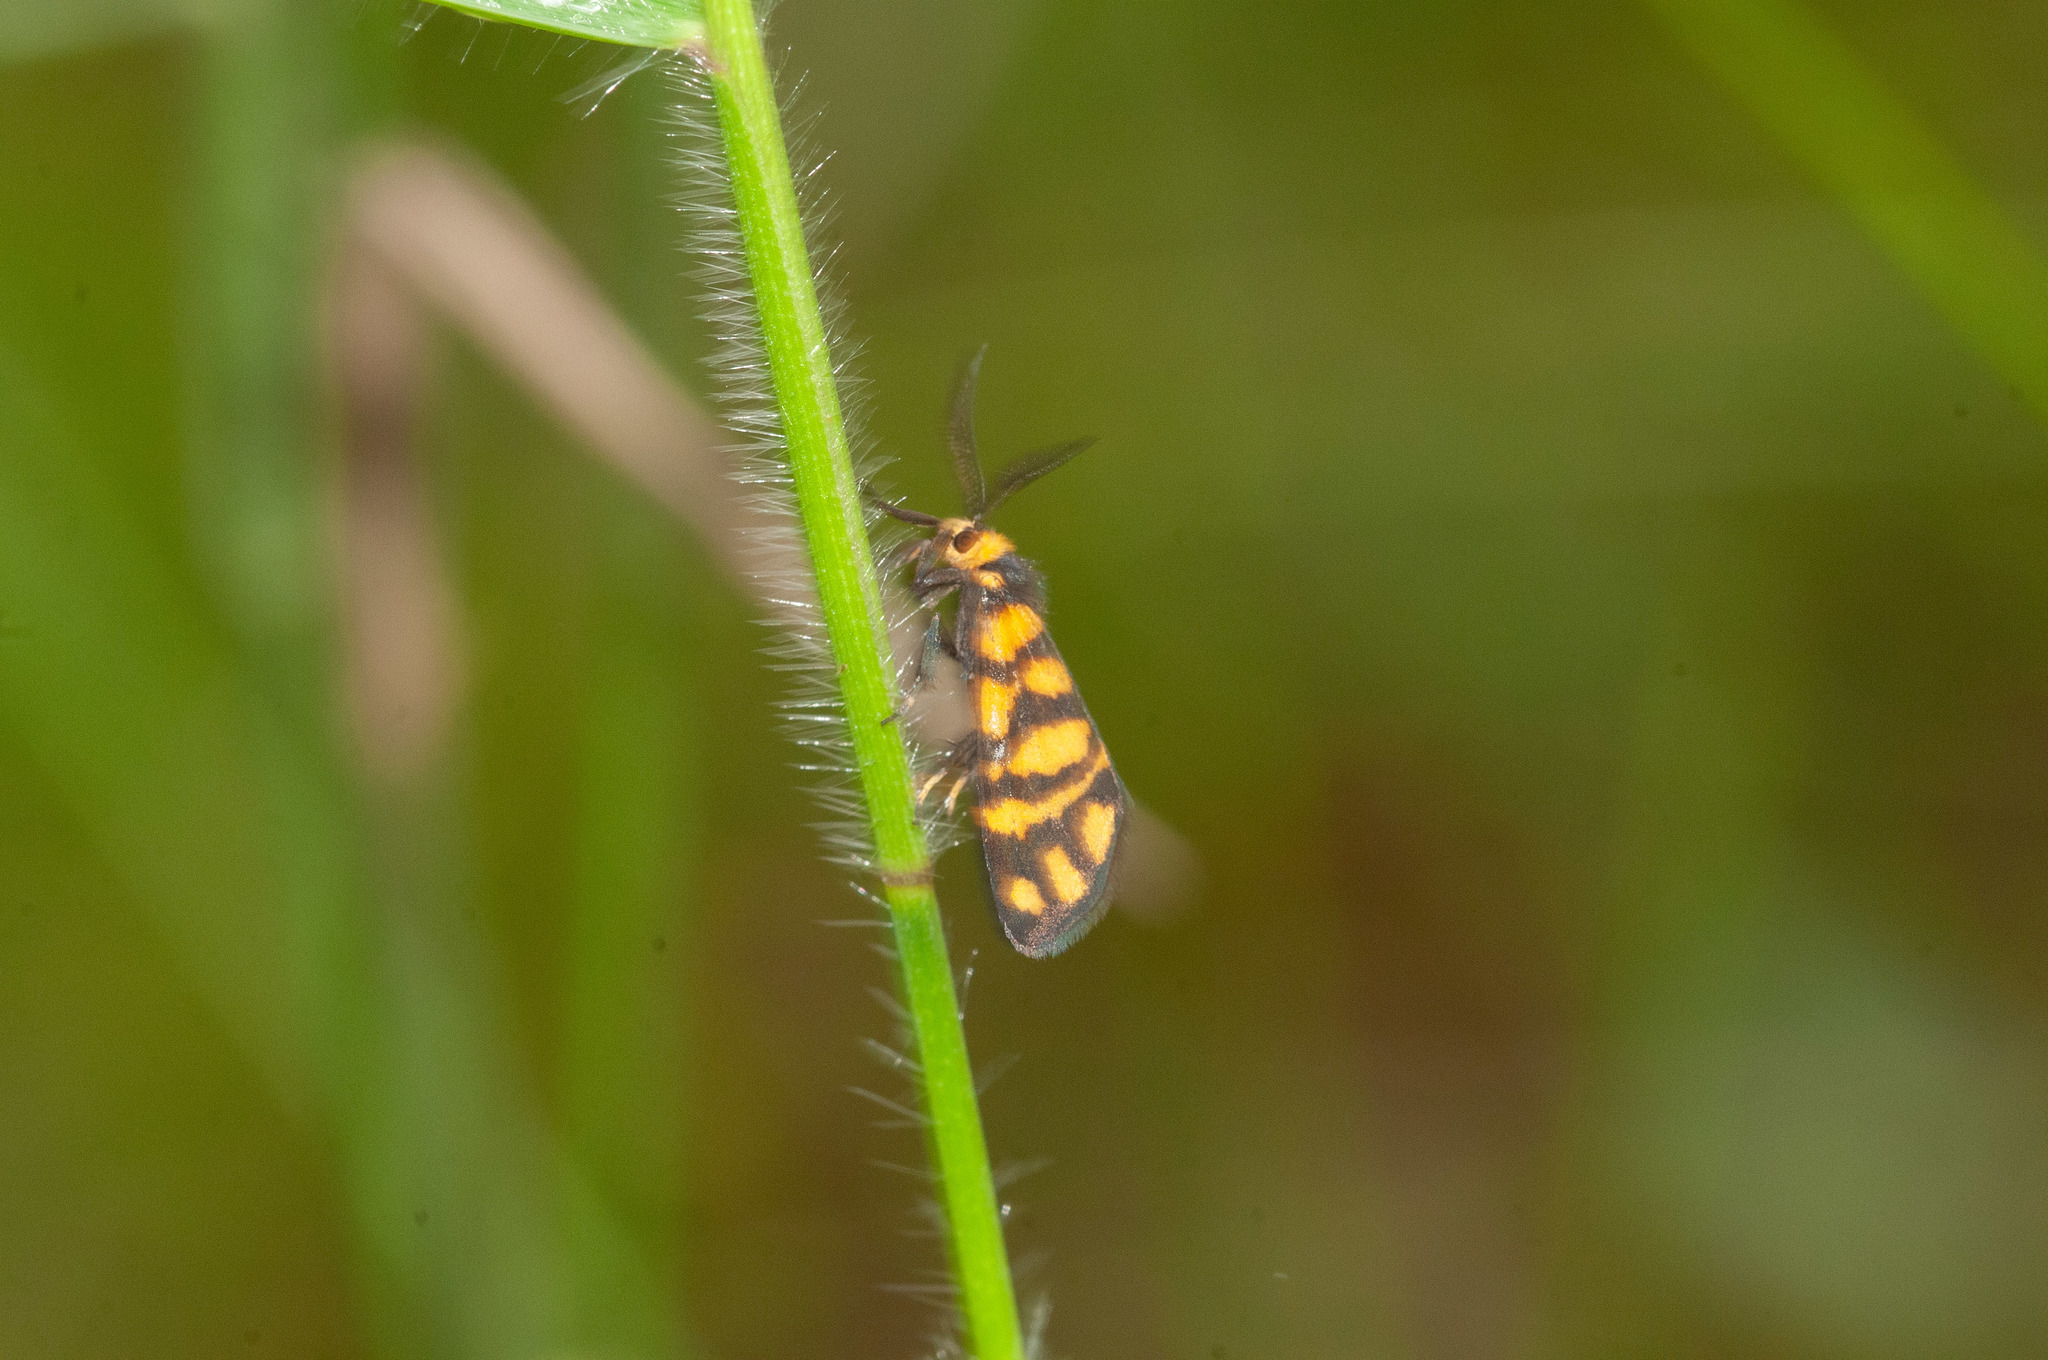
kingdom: Animalia
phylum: Arthropoda
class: Insecta
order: Lepidoptera
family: Erebidae
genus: Asura
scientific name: Asura lydia
